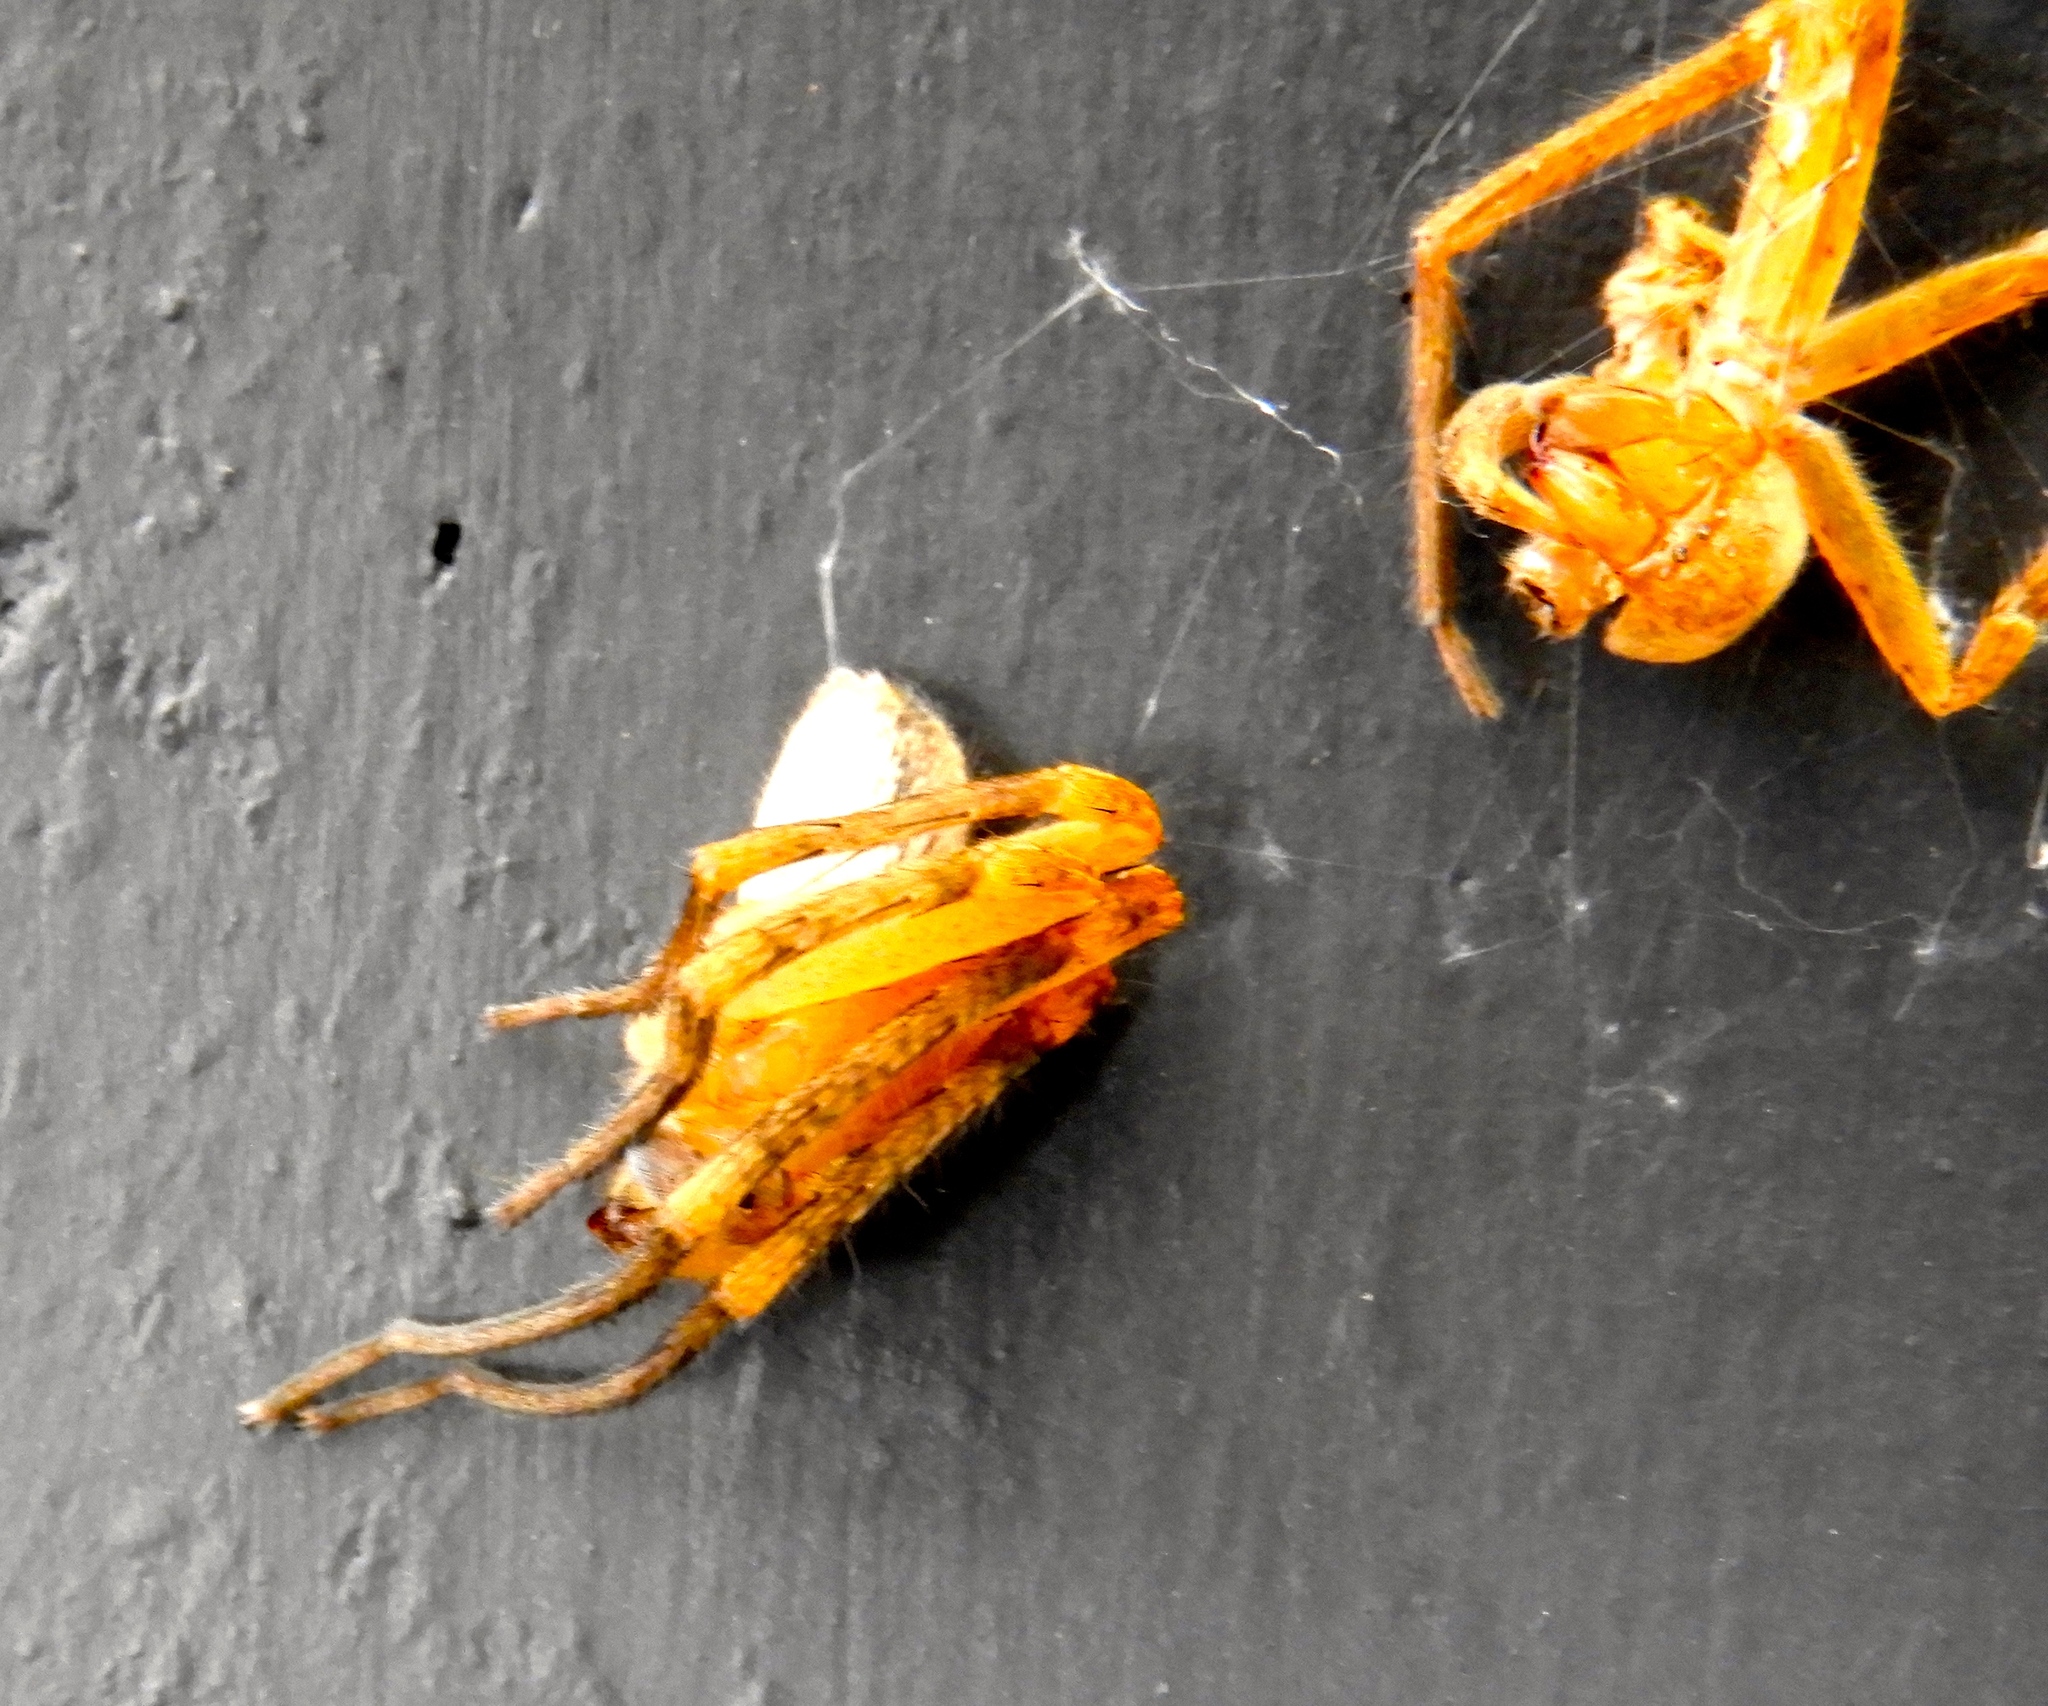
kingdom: Animalia
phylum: Arthropoda
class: Arachnida
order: Araneae
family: Sparassidae
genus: Curicaberis
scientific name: Curicaberis culiacan
